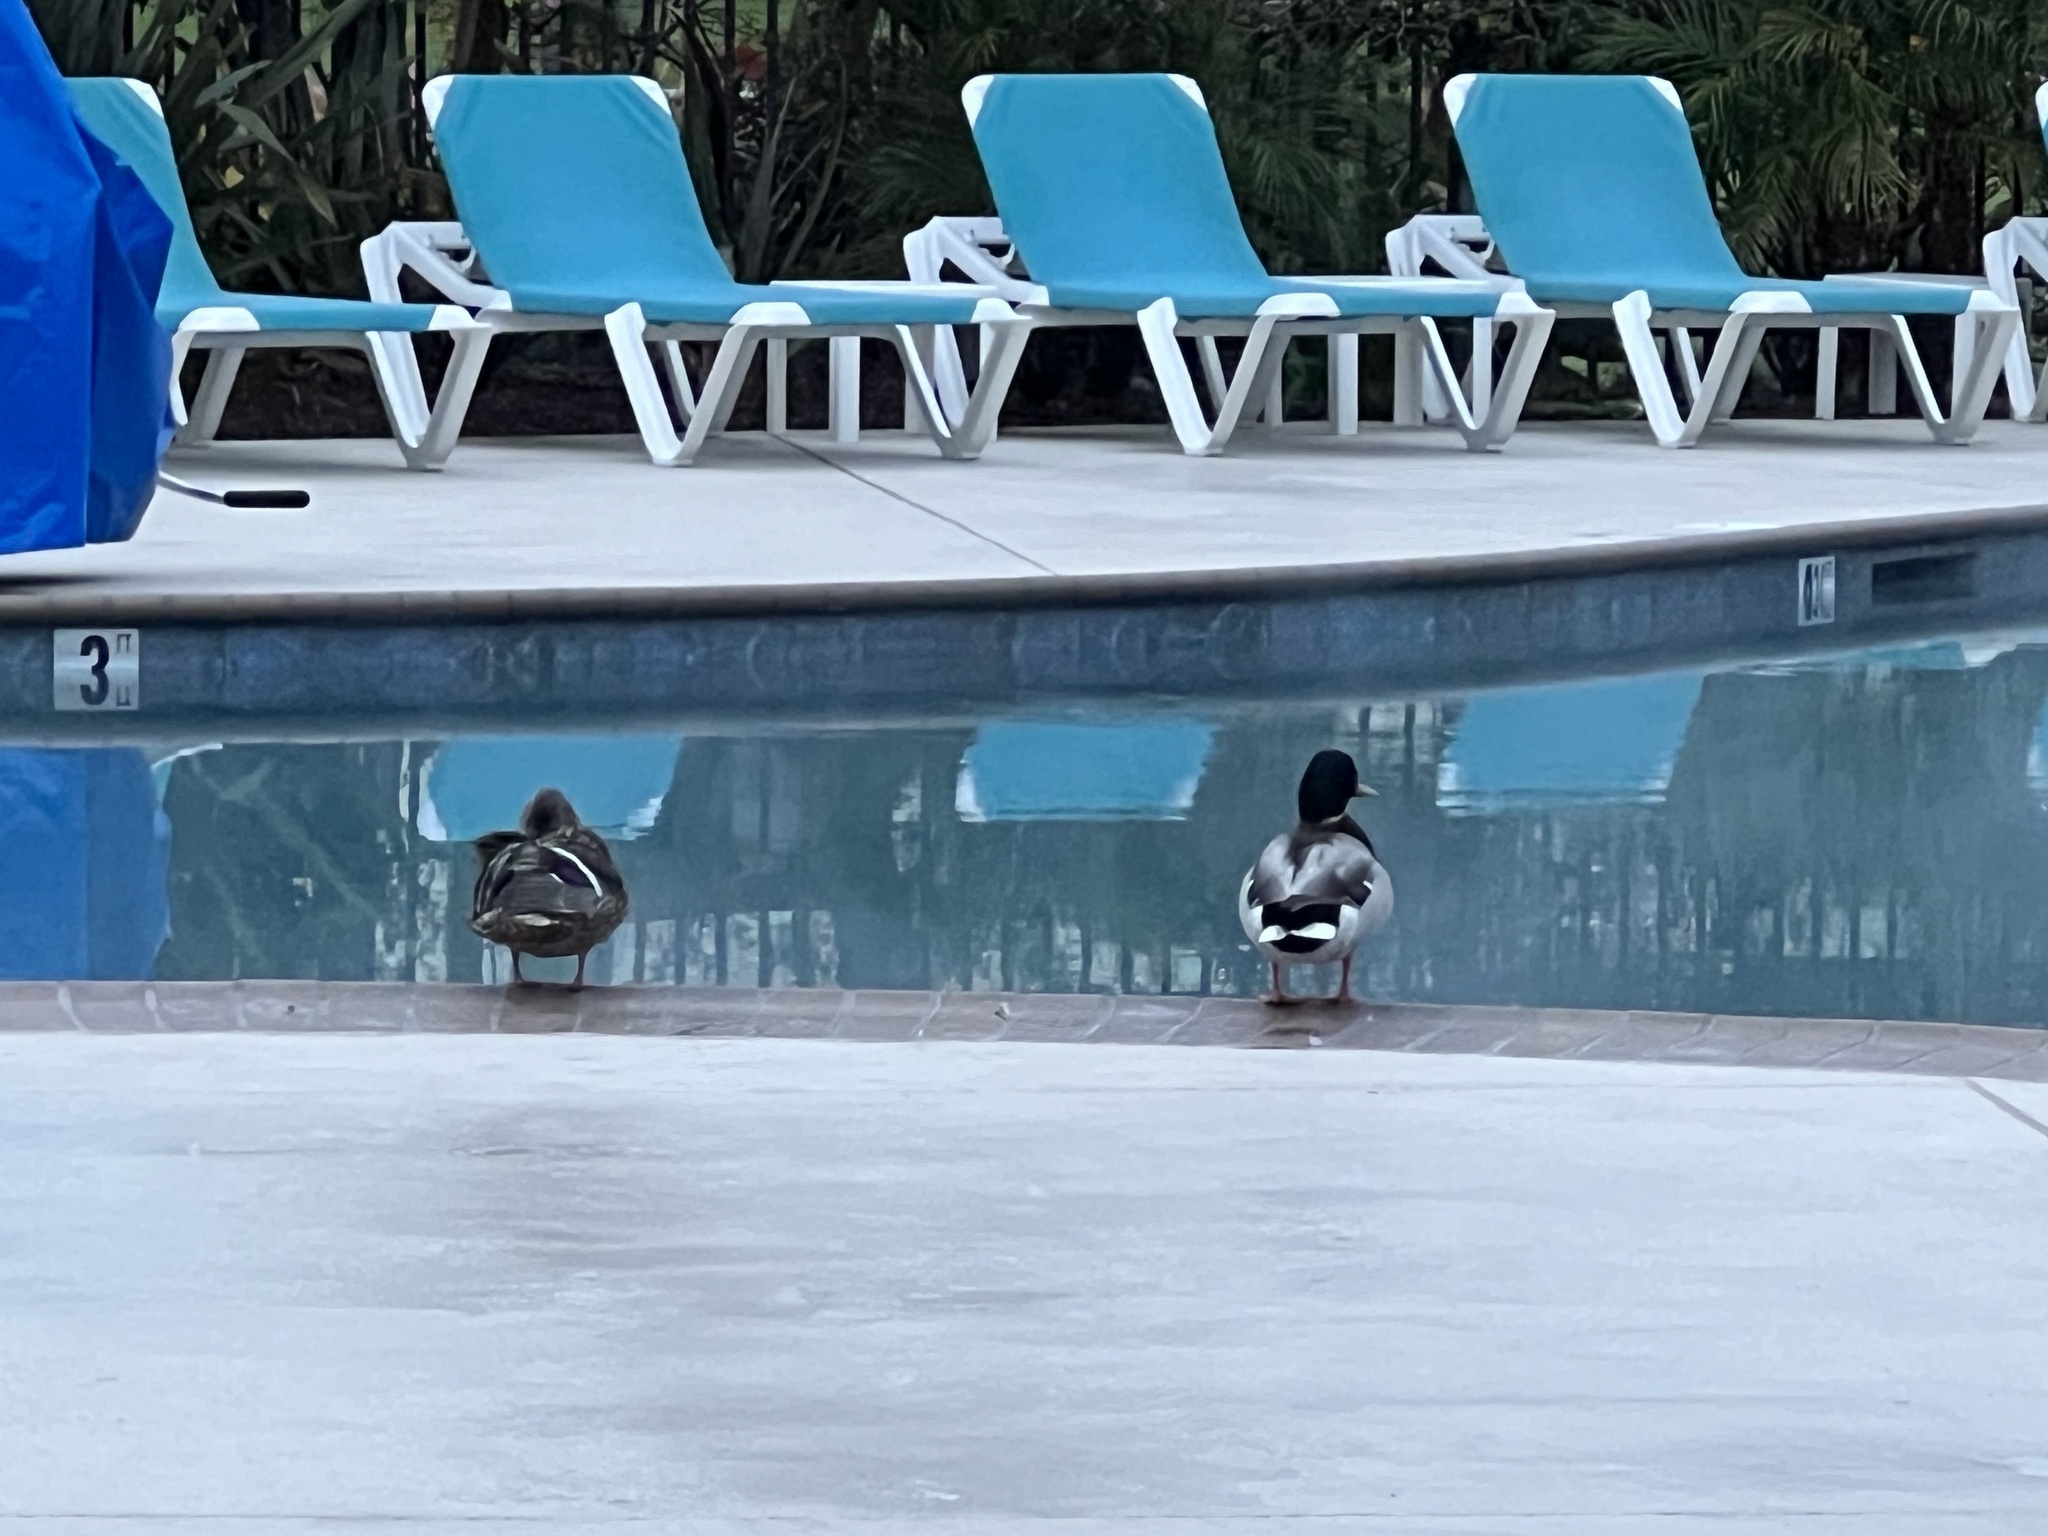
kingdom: Animalia
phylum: Chordata
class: Aves
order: Anseriformes
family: Anatidae
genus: Anas
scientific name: Anas platyrhynchos
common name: Mallard
